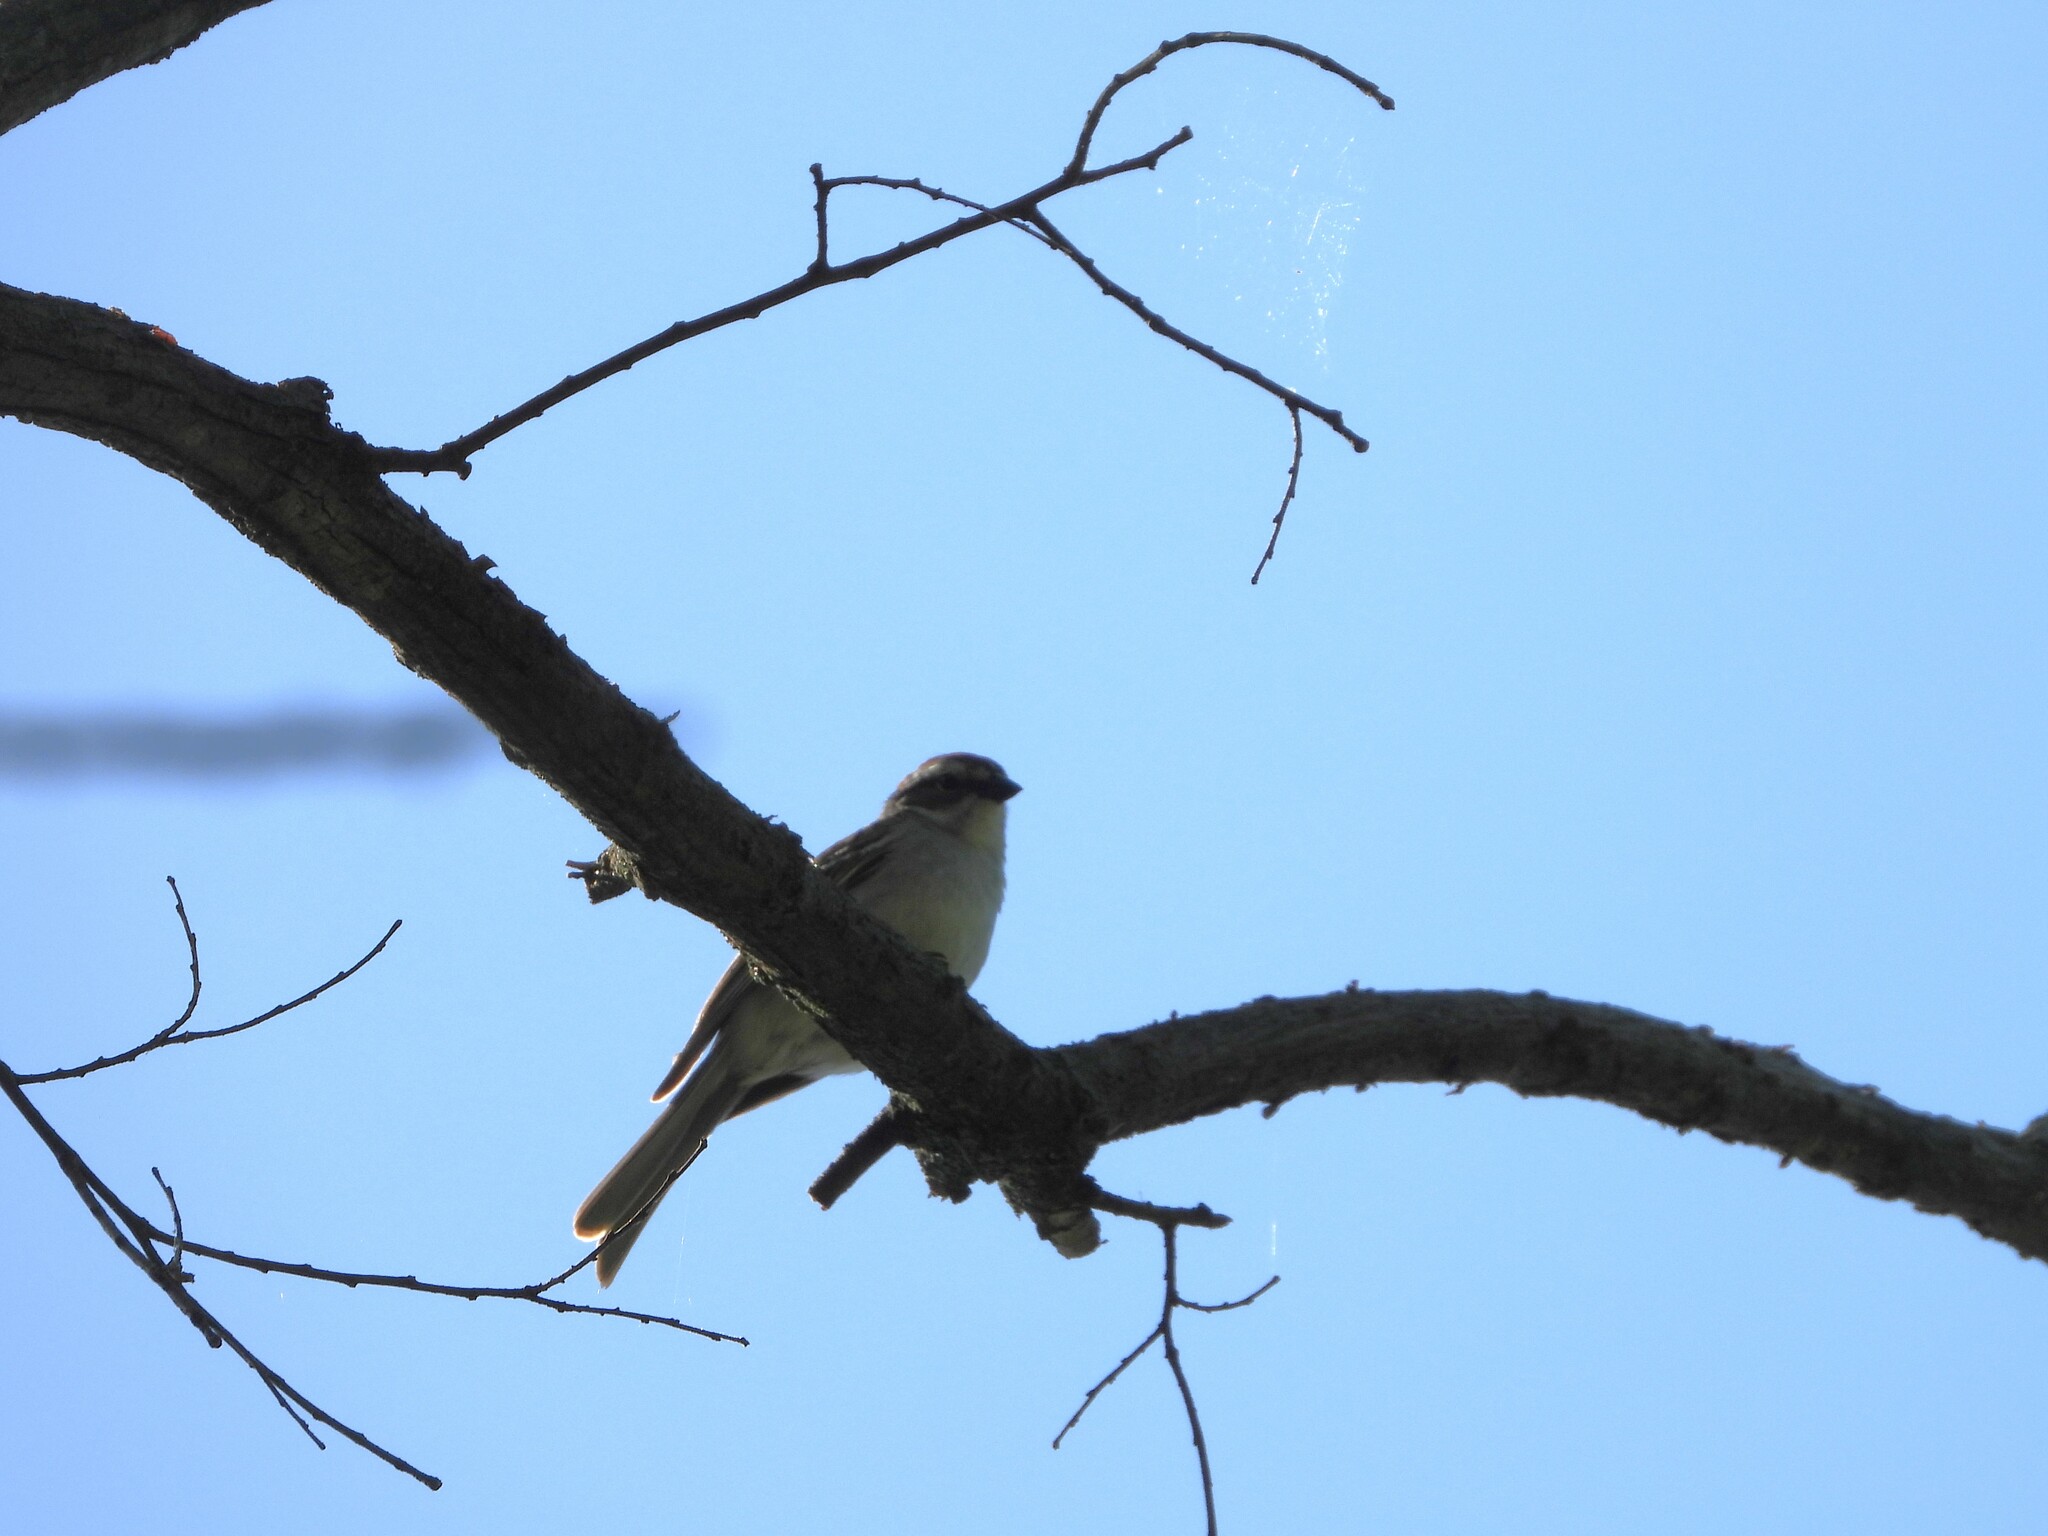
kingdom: Animalia
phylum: Chordata
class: Aves
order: Passeriformes
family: Passerellidae
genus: Spizella
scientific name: Spizella passerina
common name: Chipping sparrow
